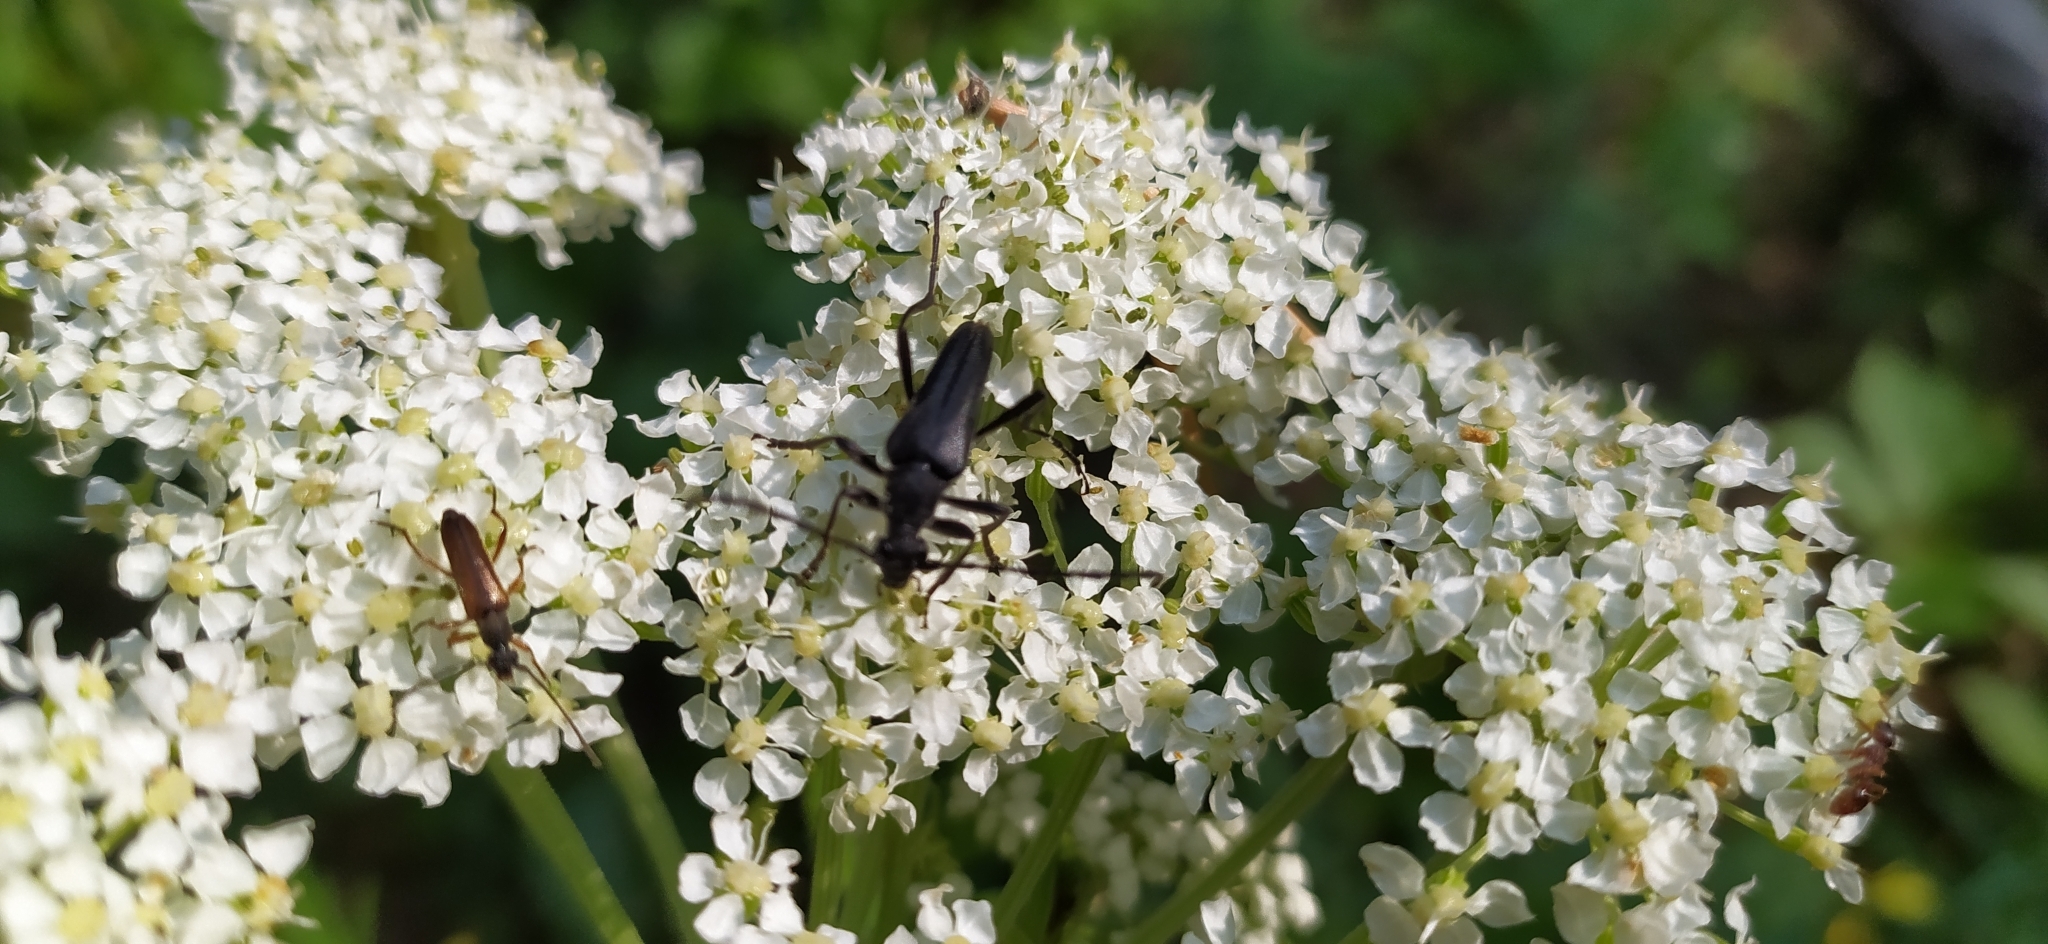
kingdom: Animalia
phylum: Arthropoda
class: Insecta
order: Coleoptera
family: Cerambycidae
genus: Leptura
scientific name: Leptura aethiops
